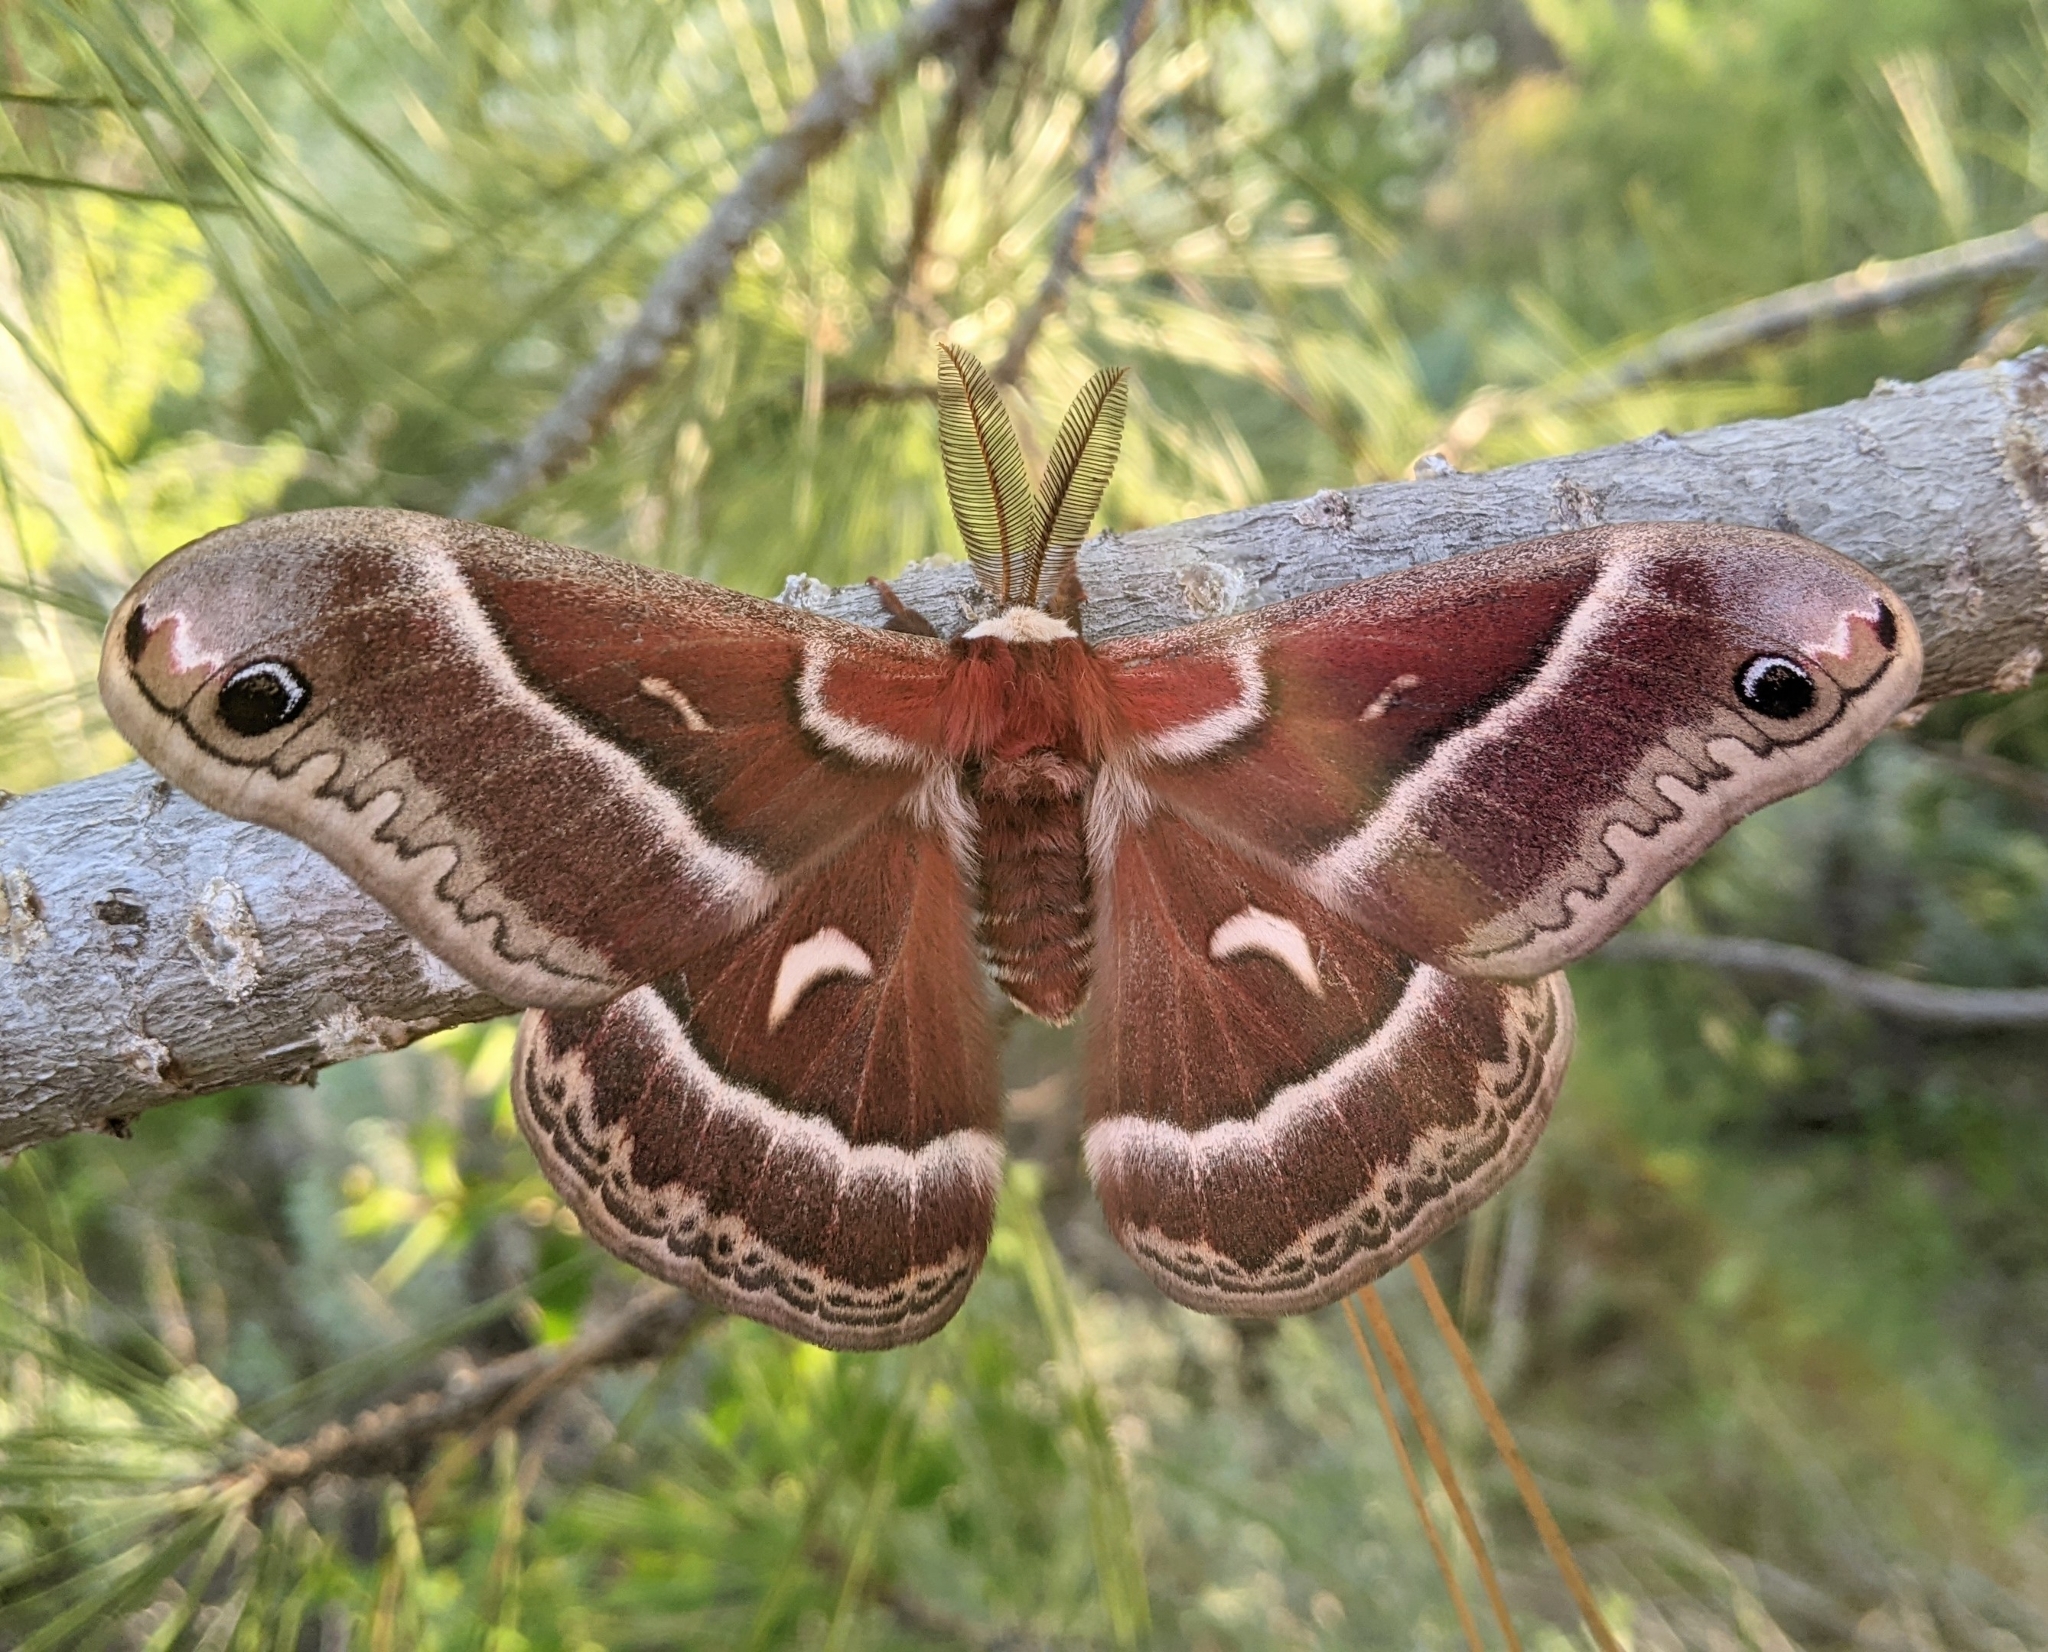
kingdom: Animalia
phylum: Arthropoda
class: Insecta
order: Lepidoptera
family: Saturniidae
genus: Hyalophora
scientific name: Hyalophora euryalus
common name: Ceanothus silkmoth
